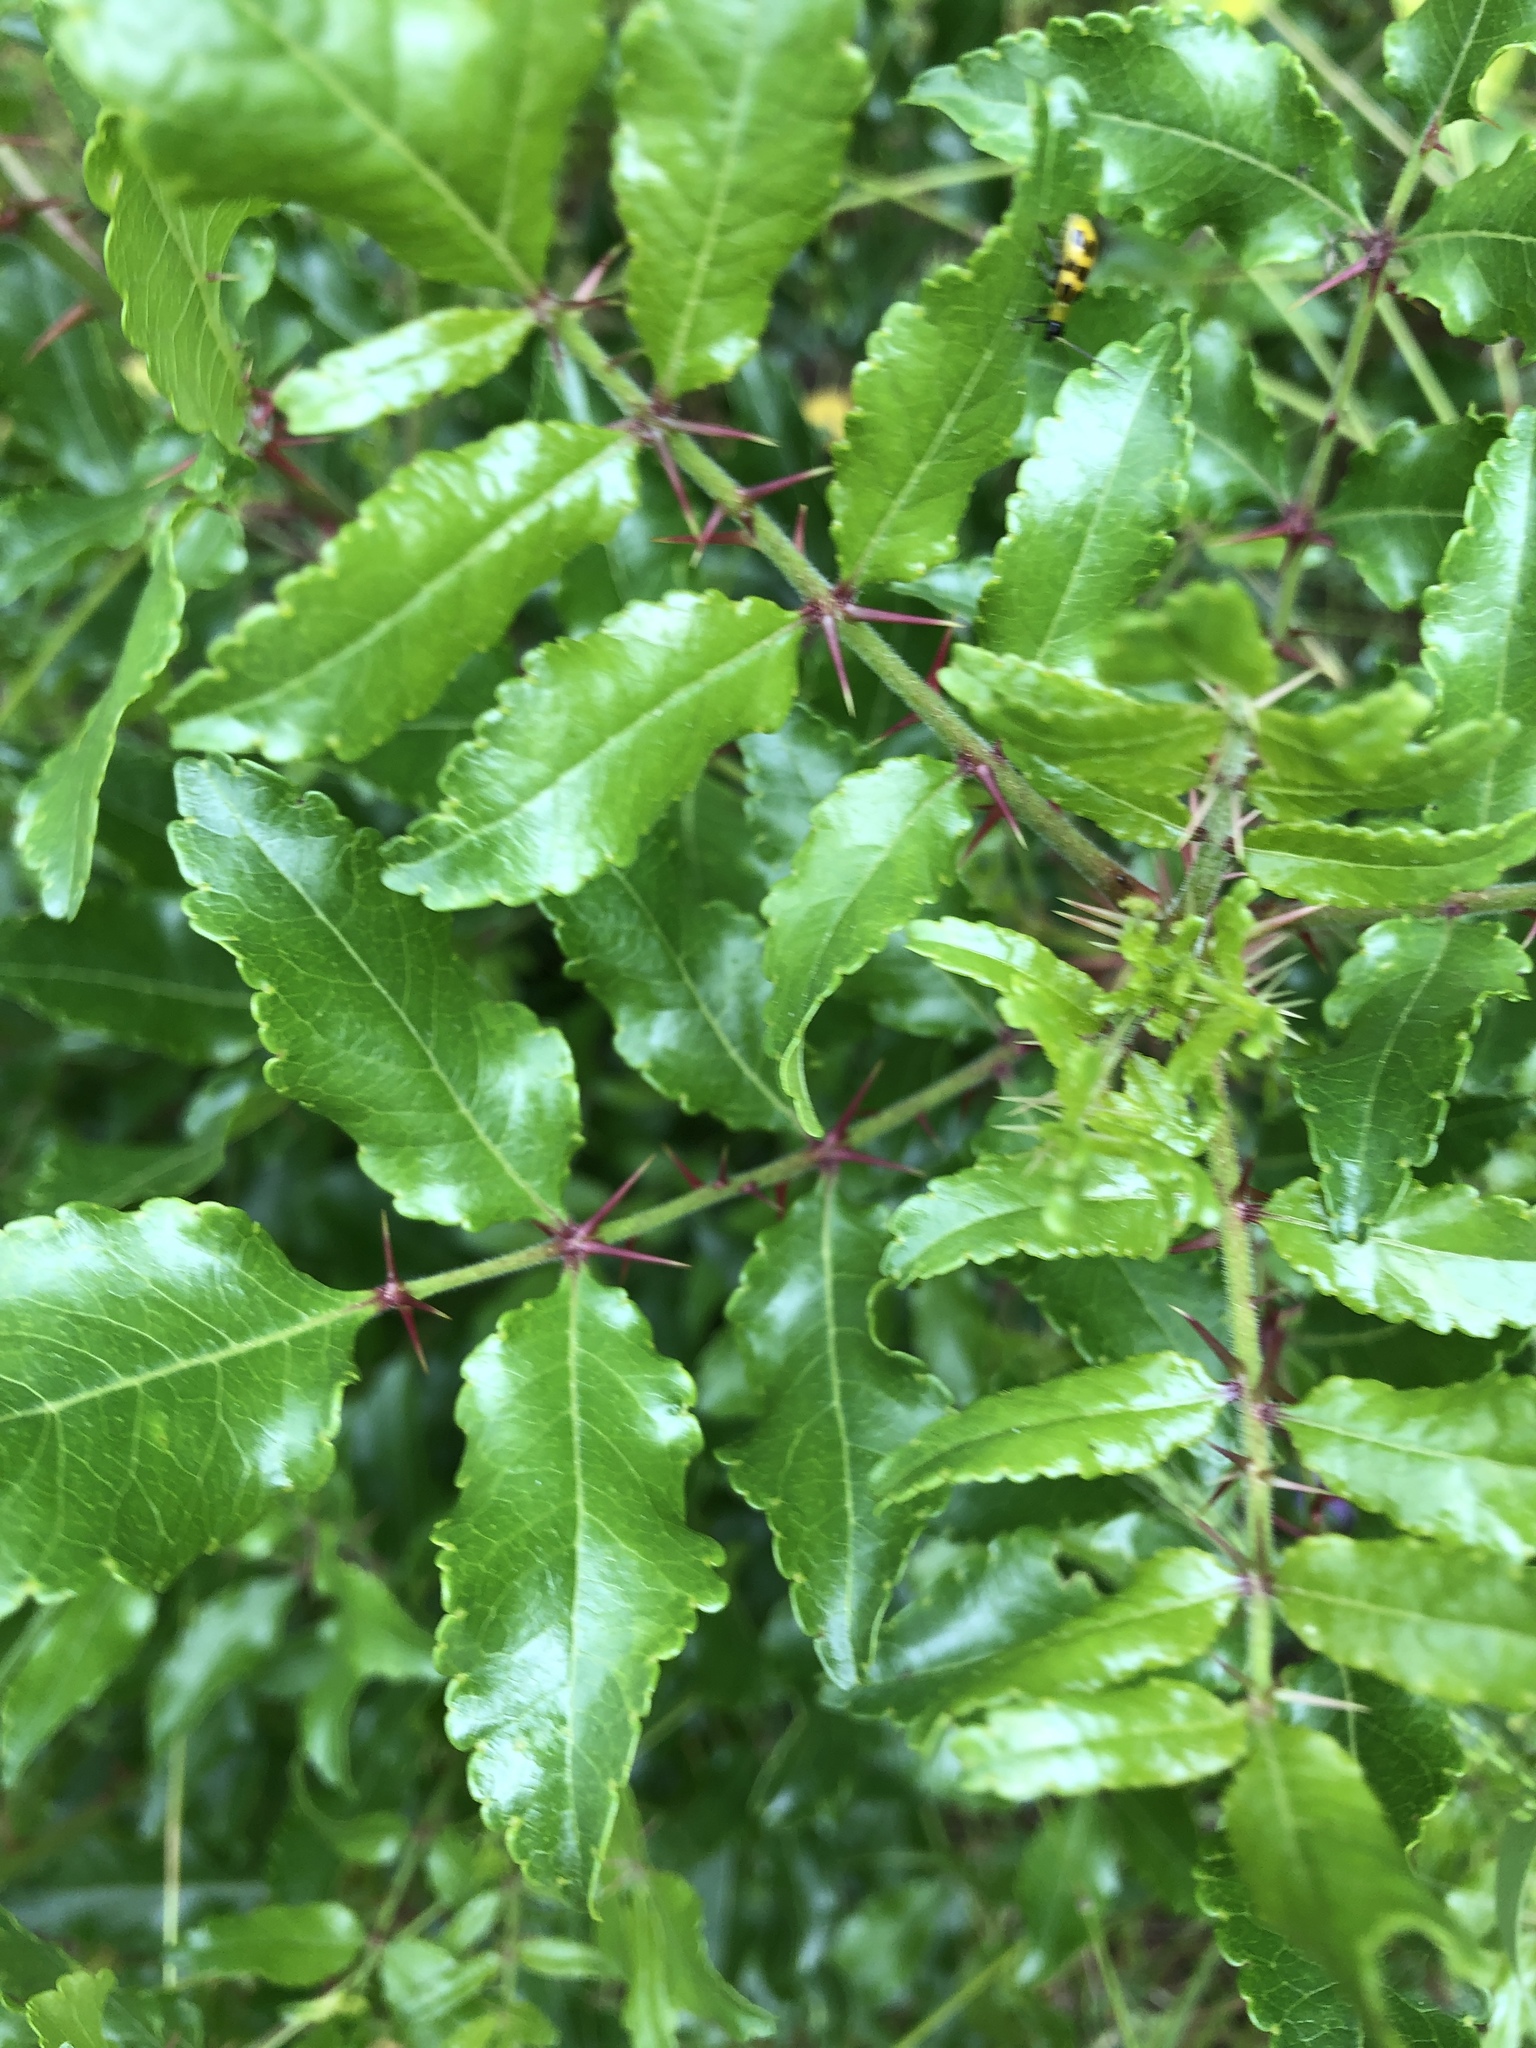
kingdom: Plantae
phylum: Tracheophyta
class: Magnoliopsida
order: Sapindales
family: Rutaceae
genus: Zanthoxylum
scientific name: Zanthoxylum clava-herculis
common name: Hercules'-club
